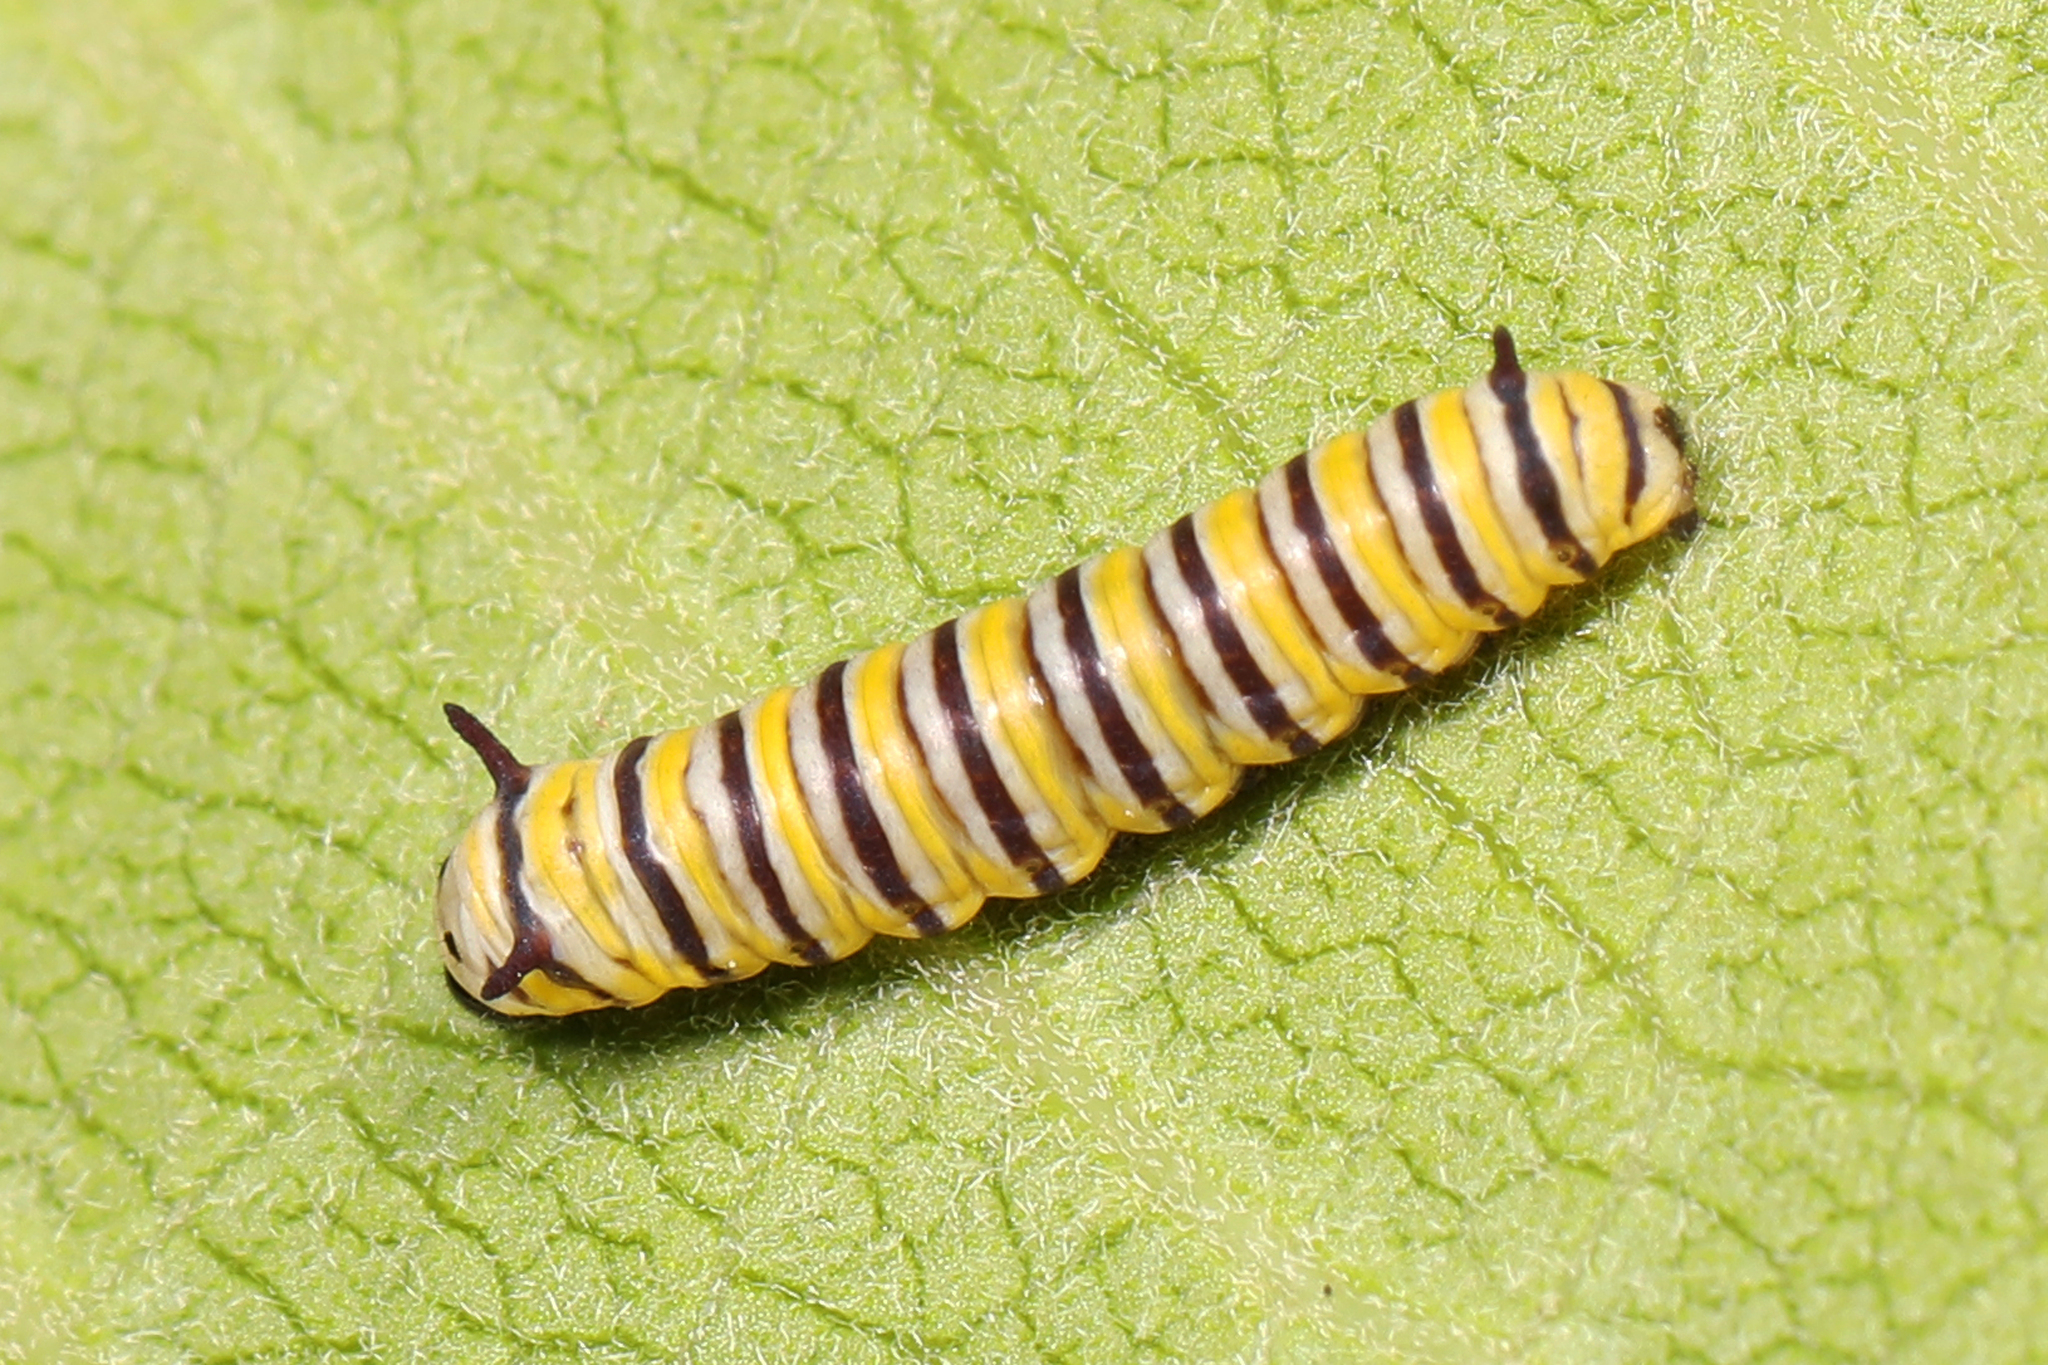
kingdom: Animalia
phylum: Arthropoda
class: Insecta
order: Lepidoptera
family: Nymphalidae
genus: Danaus
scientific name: Danaus plexippus
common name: Monarch
